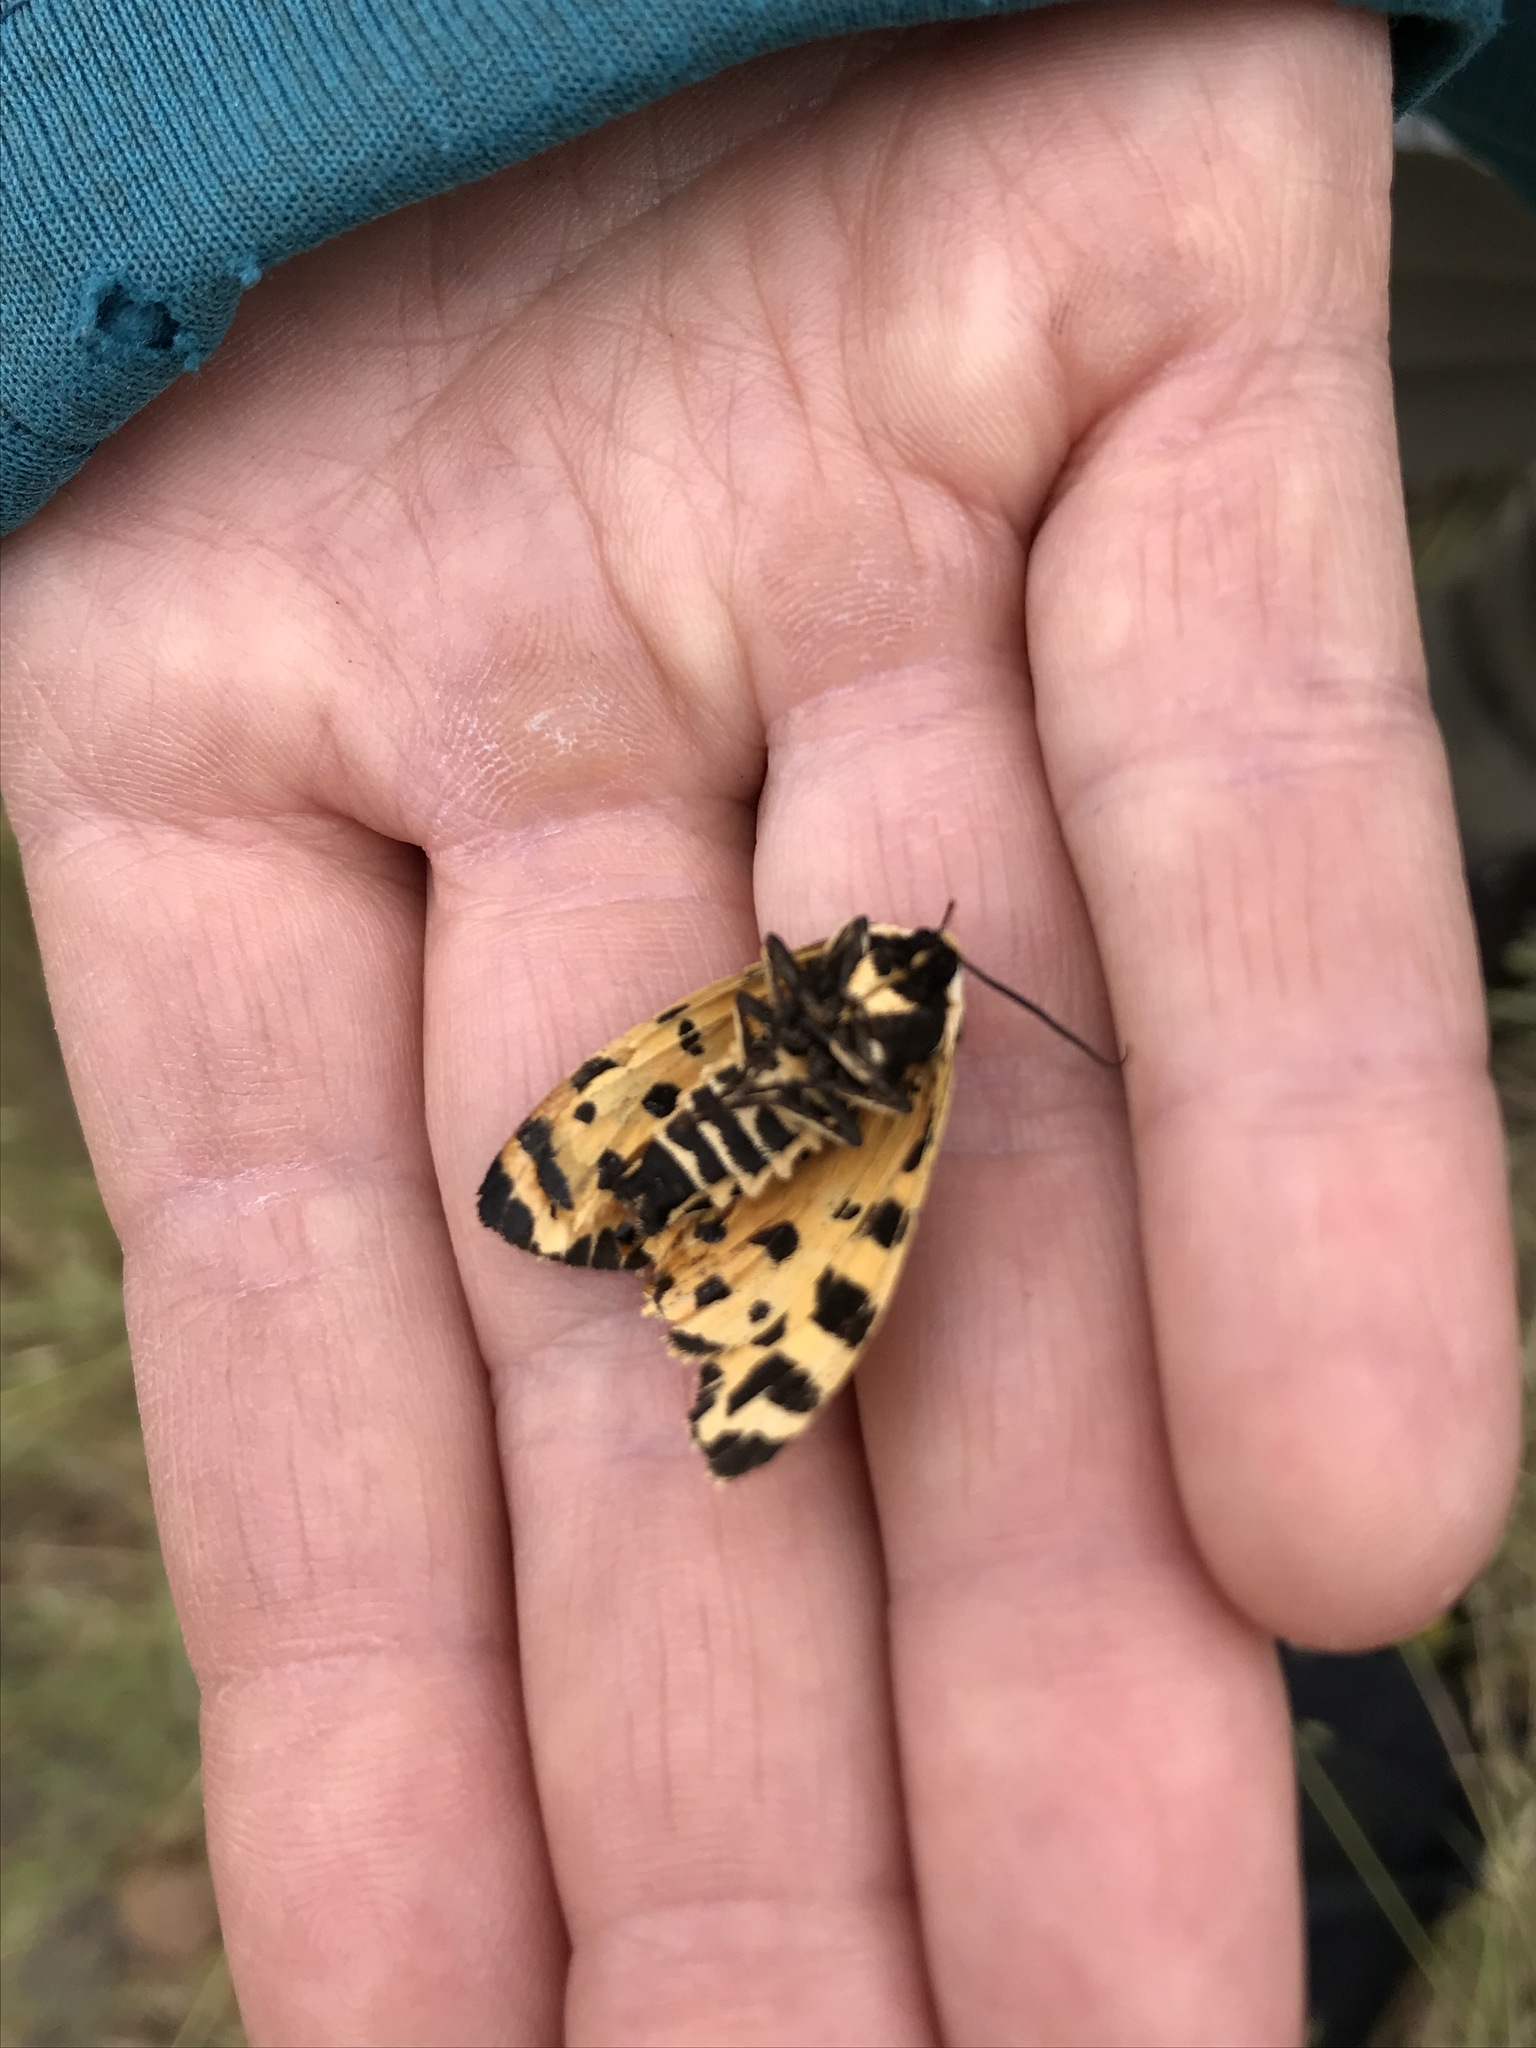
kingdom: Animalia
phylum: Arthropoda
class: Insecta
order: Lepidoptera
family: Erebidae
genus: Apantesis
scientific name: Apantesis
